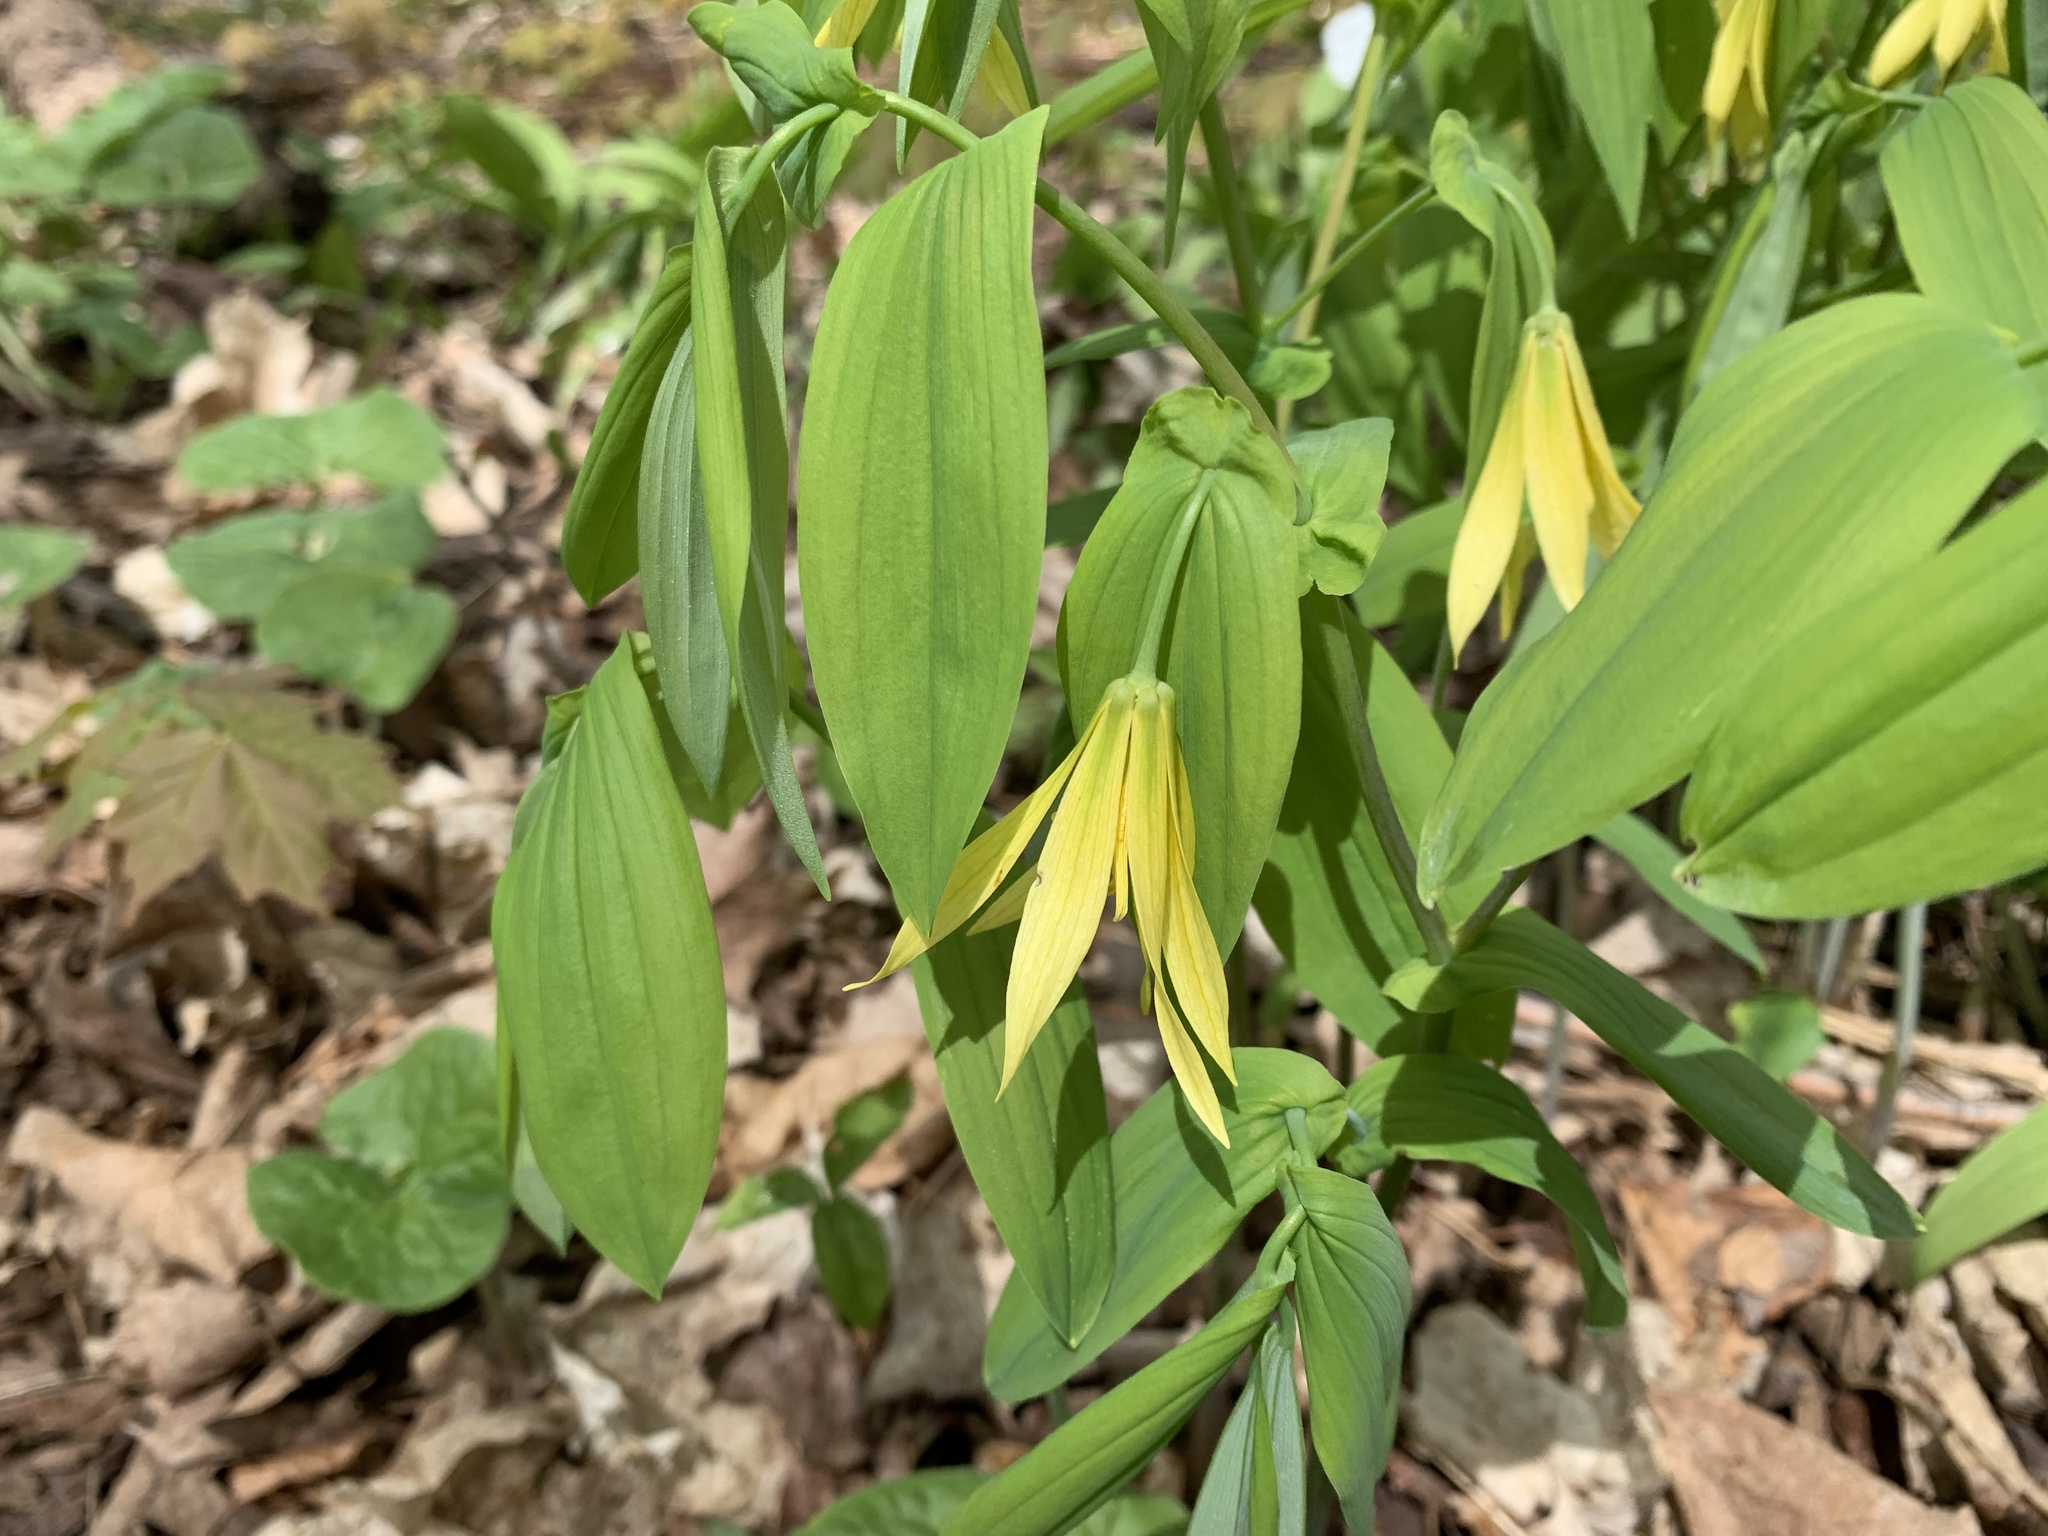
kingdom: Plantae
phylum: Tracheophyta
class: Liliopsida
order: Liliales
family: Colchicaceae
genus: Uvularia
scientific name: Uvularia grandiflora
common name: Bellwort
